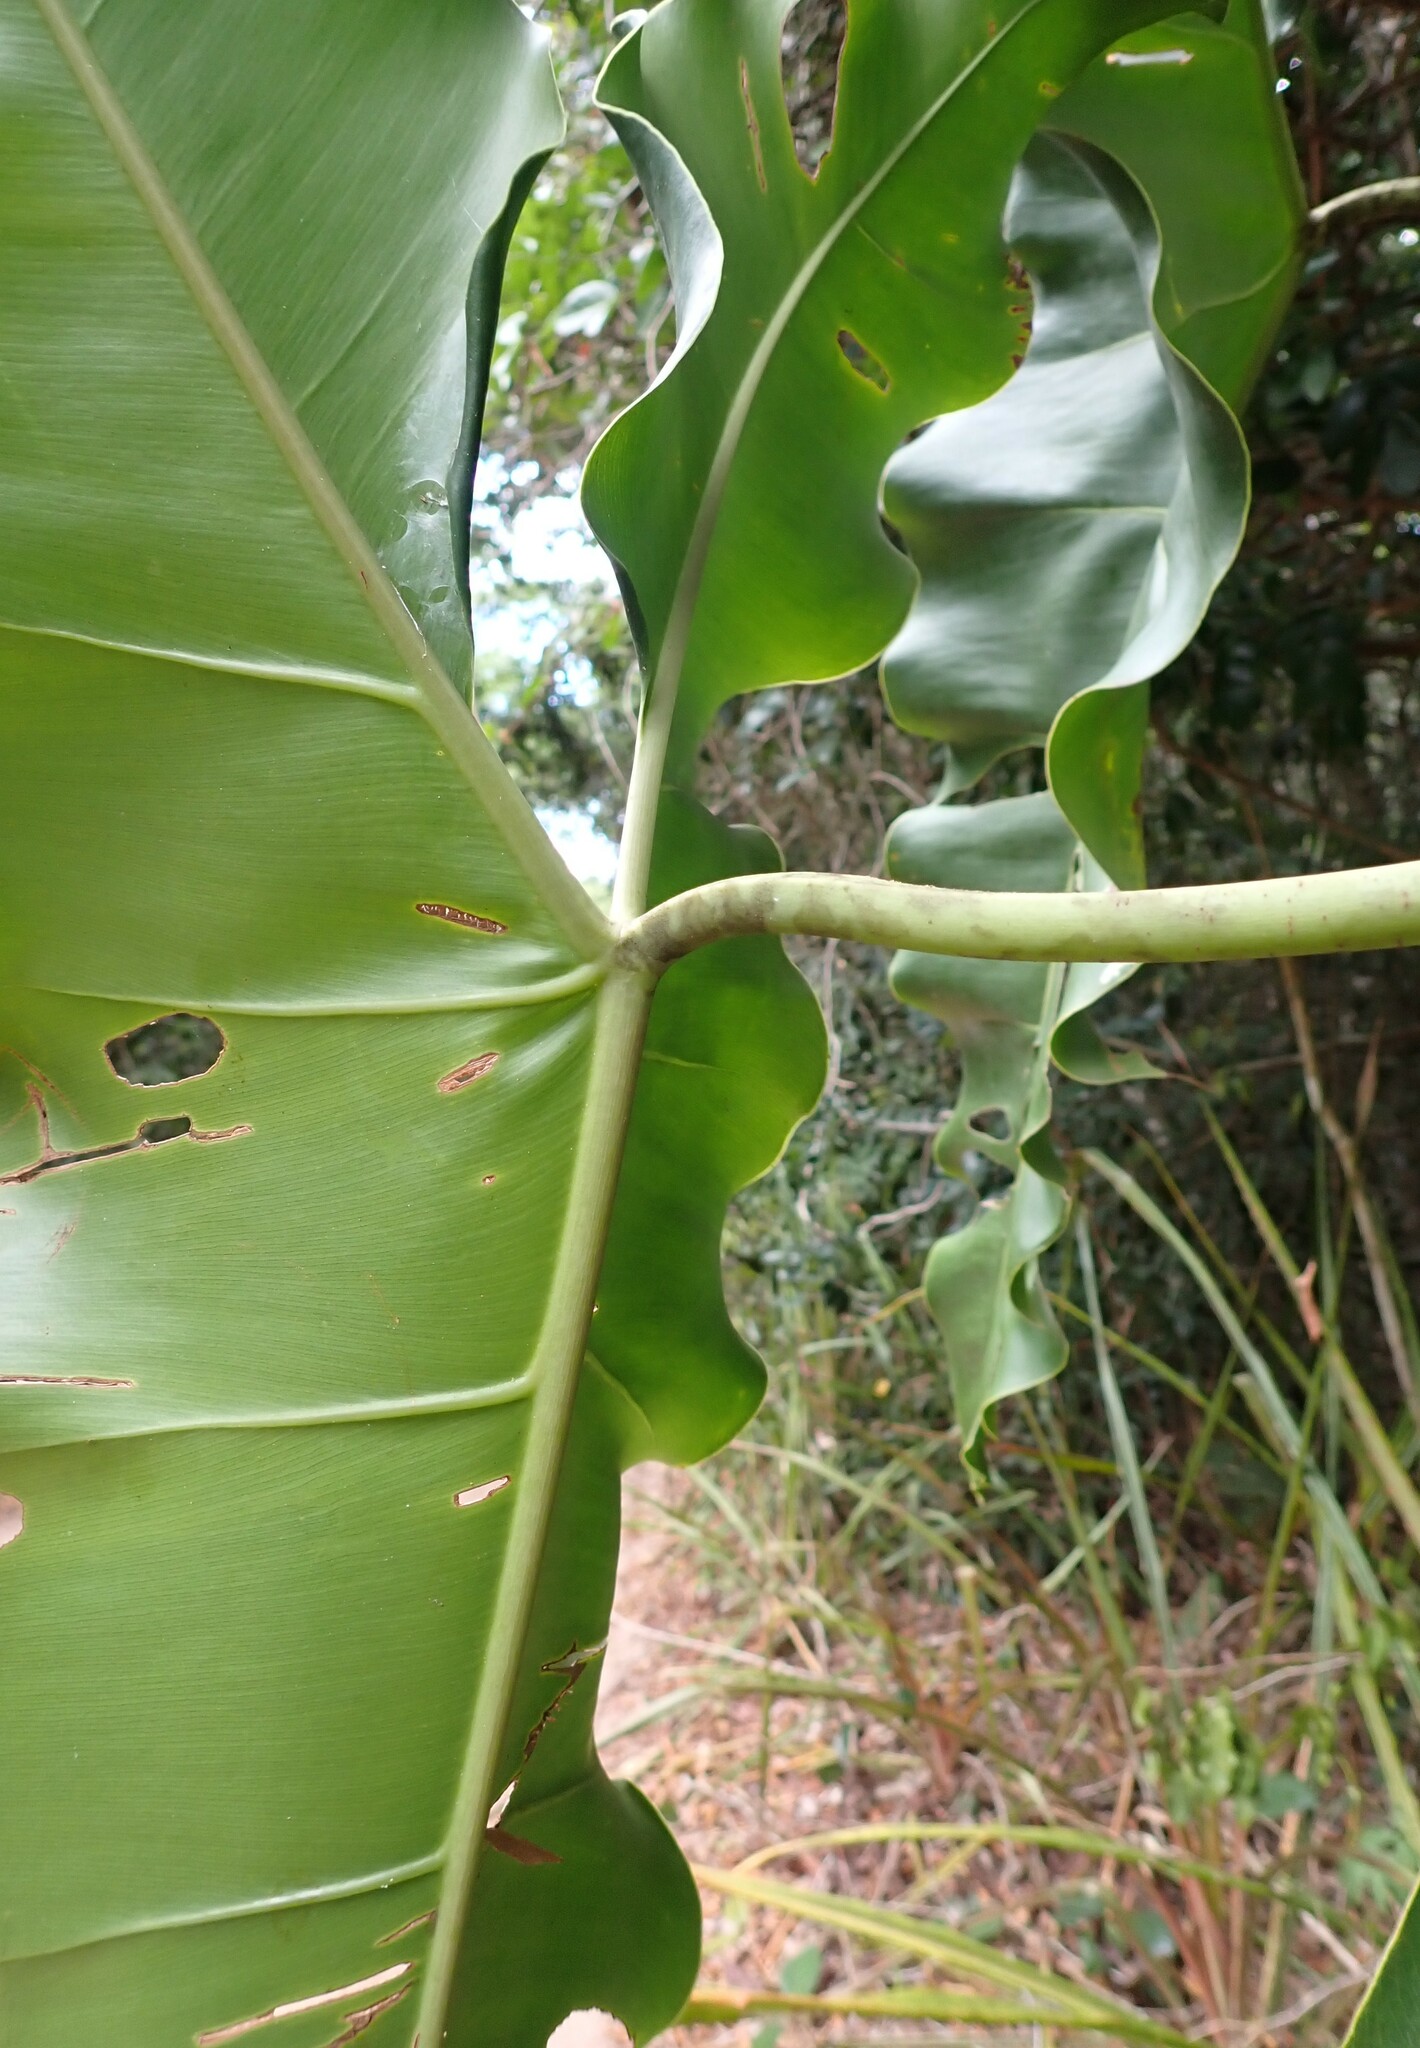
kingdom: Plantae
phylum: Tracheophyta
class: Liliopsida
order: Alismatales
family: Araceae
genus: Thaumatophyllum
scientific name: Thaumatophyllum stenolobum
